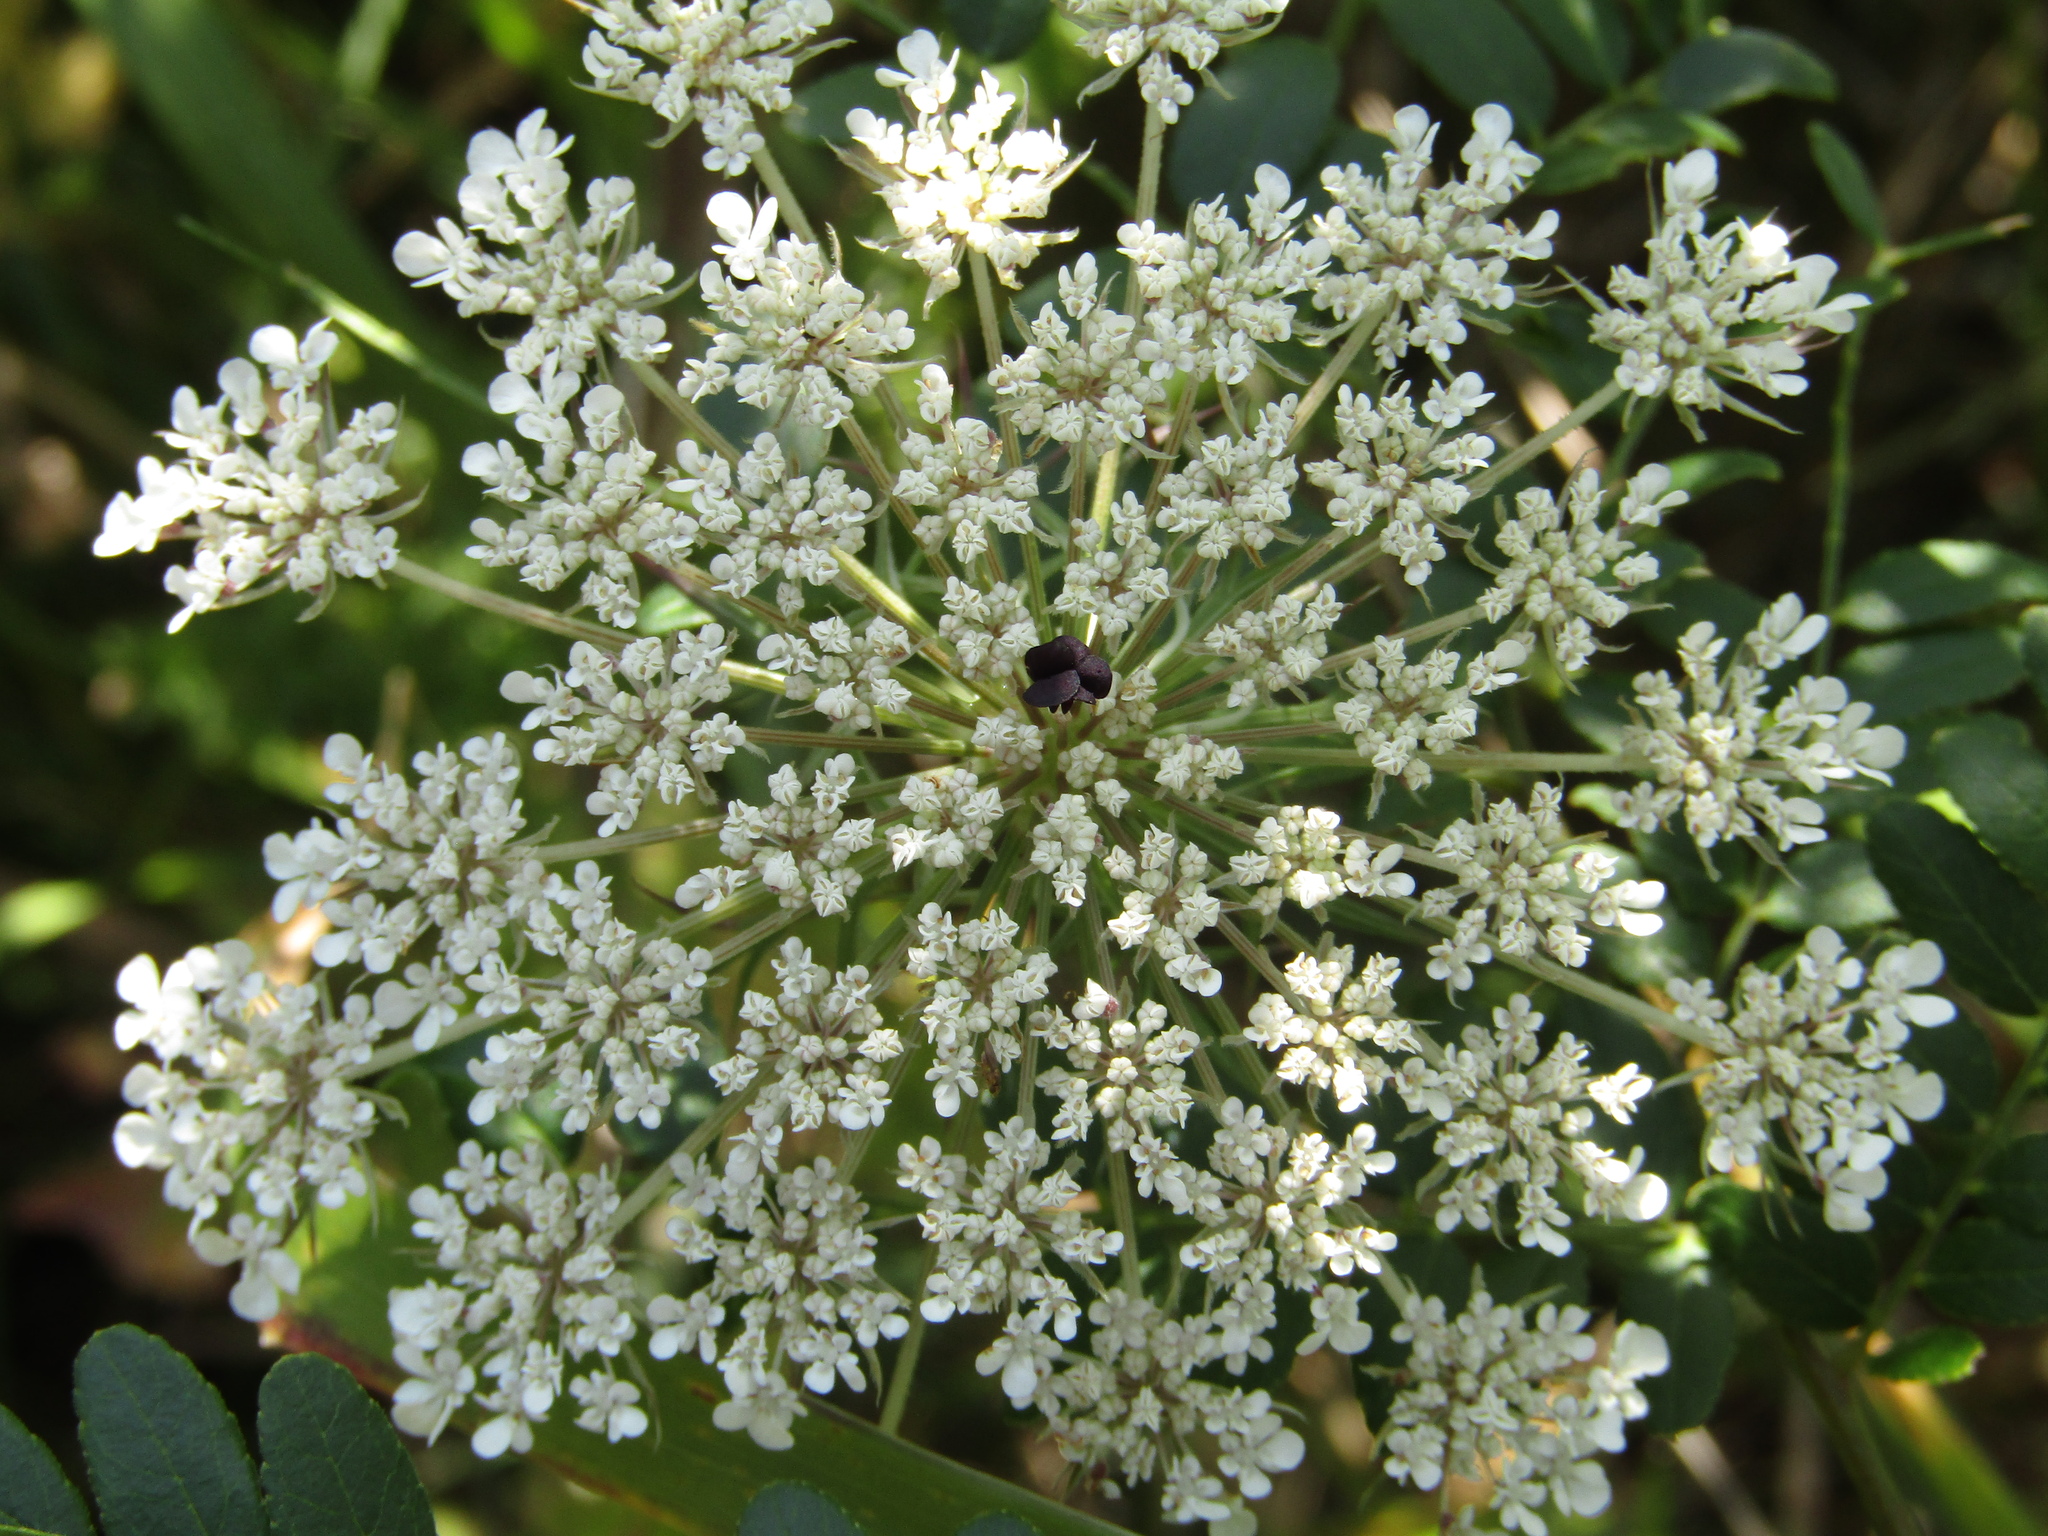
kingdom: Plantae
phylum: Tracheophyta
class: Magnoliopsida
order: Apiales
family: Apiaceae
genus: Daucus
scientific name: Daucus carota
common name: Wild carrot
